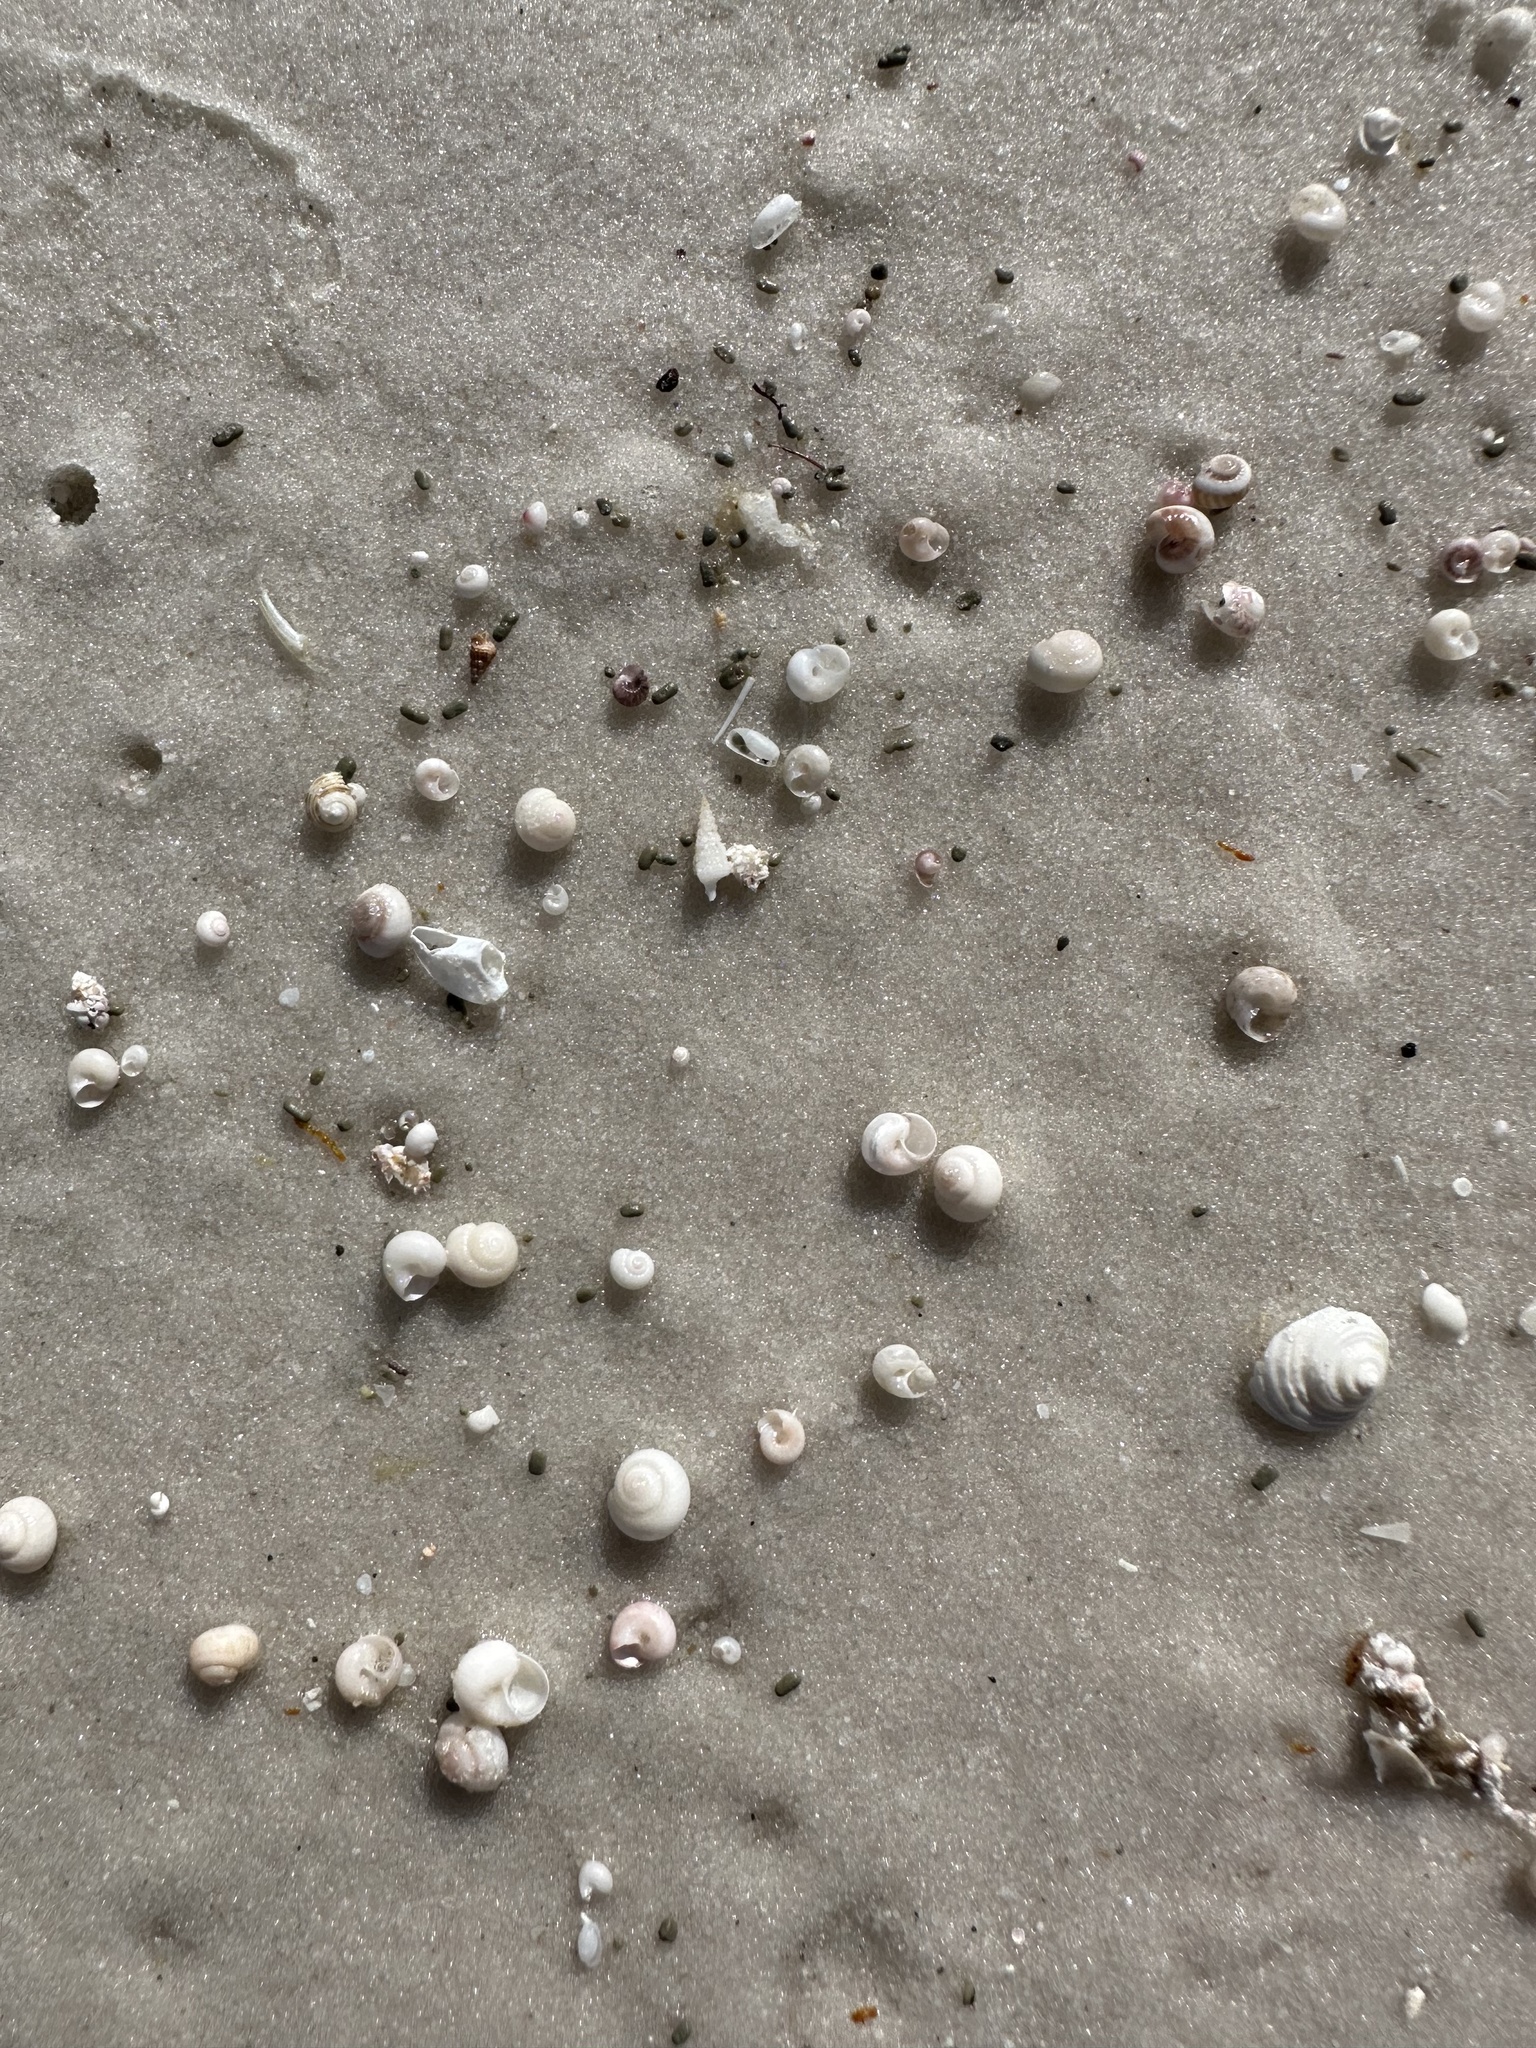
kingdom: Animalia
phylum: Mollusca
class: Gastropoda
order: Trochida
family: Trochidae
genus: Isanda
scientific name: Isanda coronata
